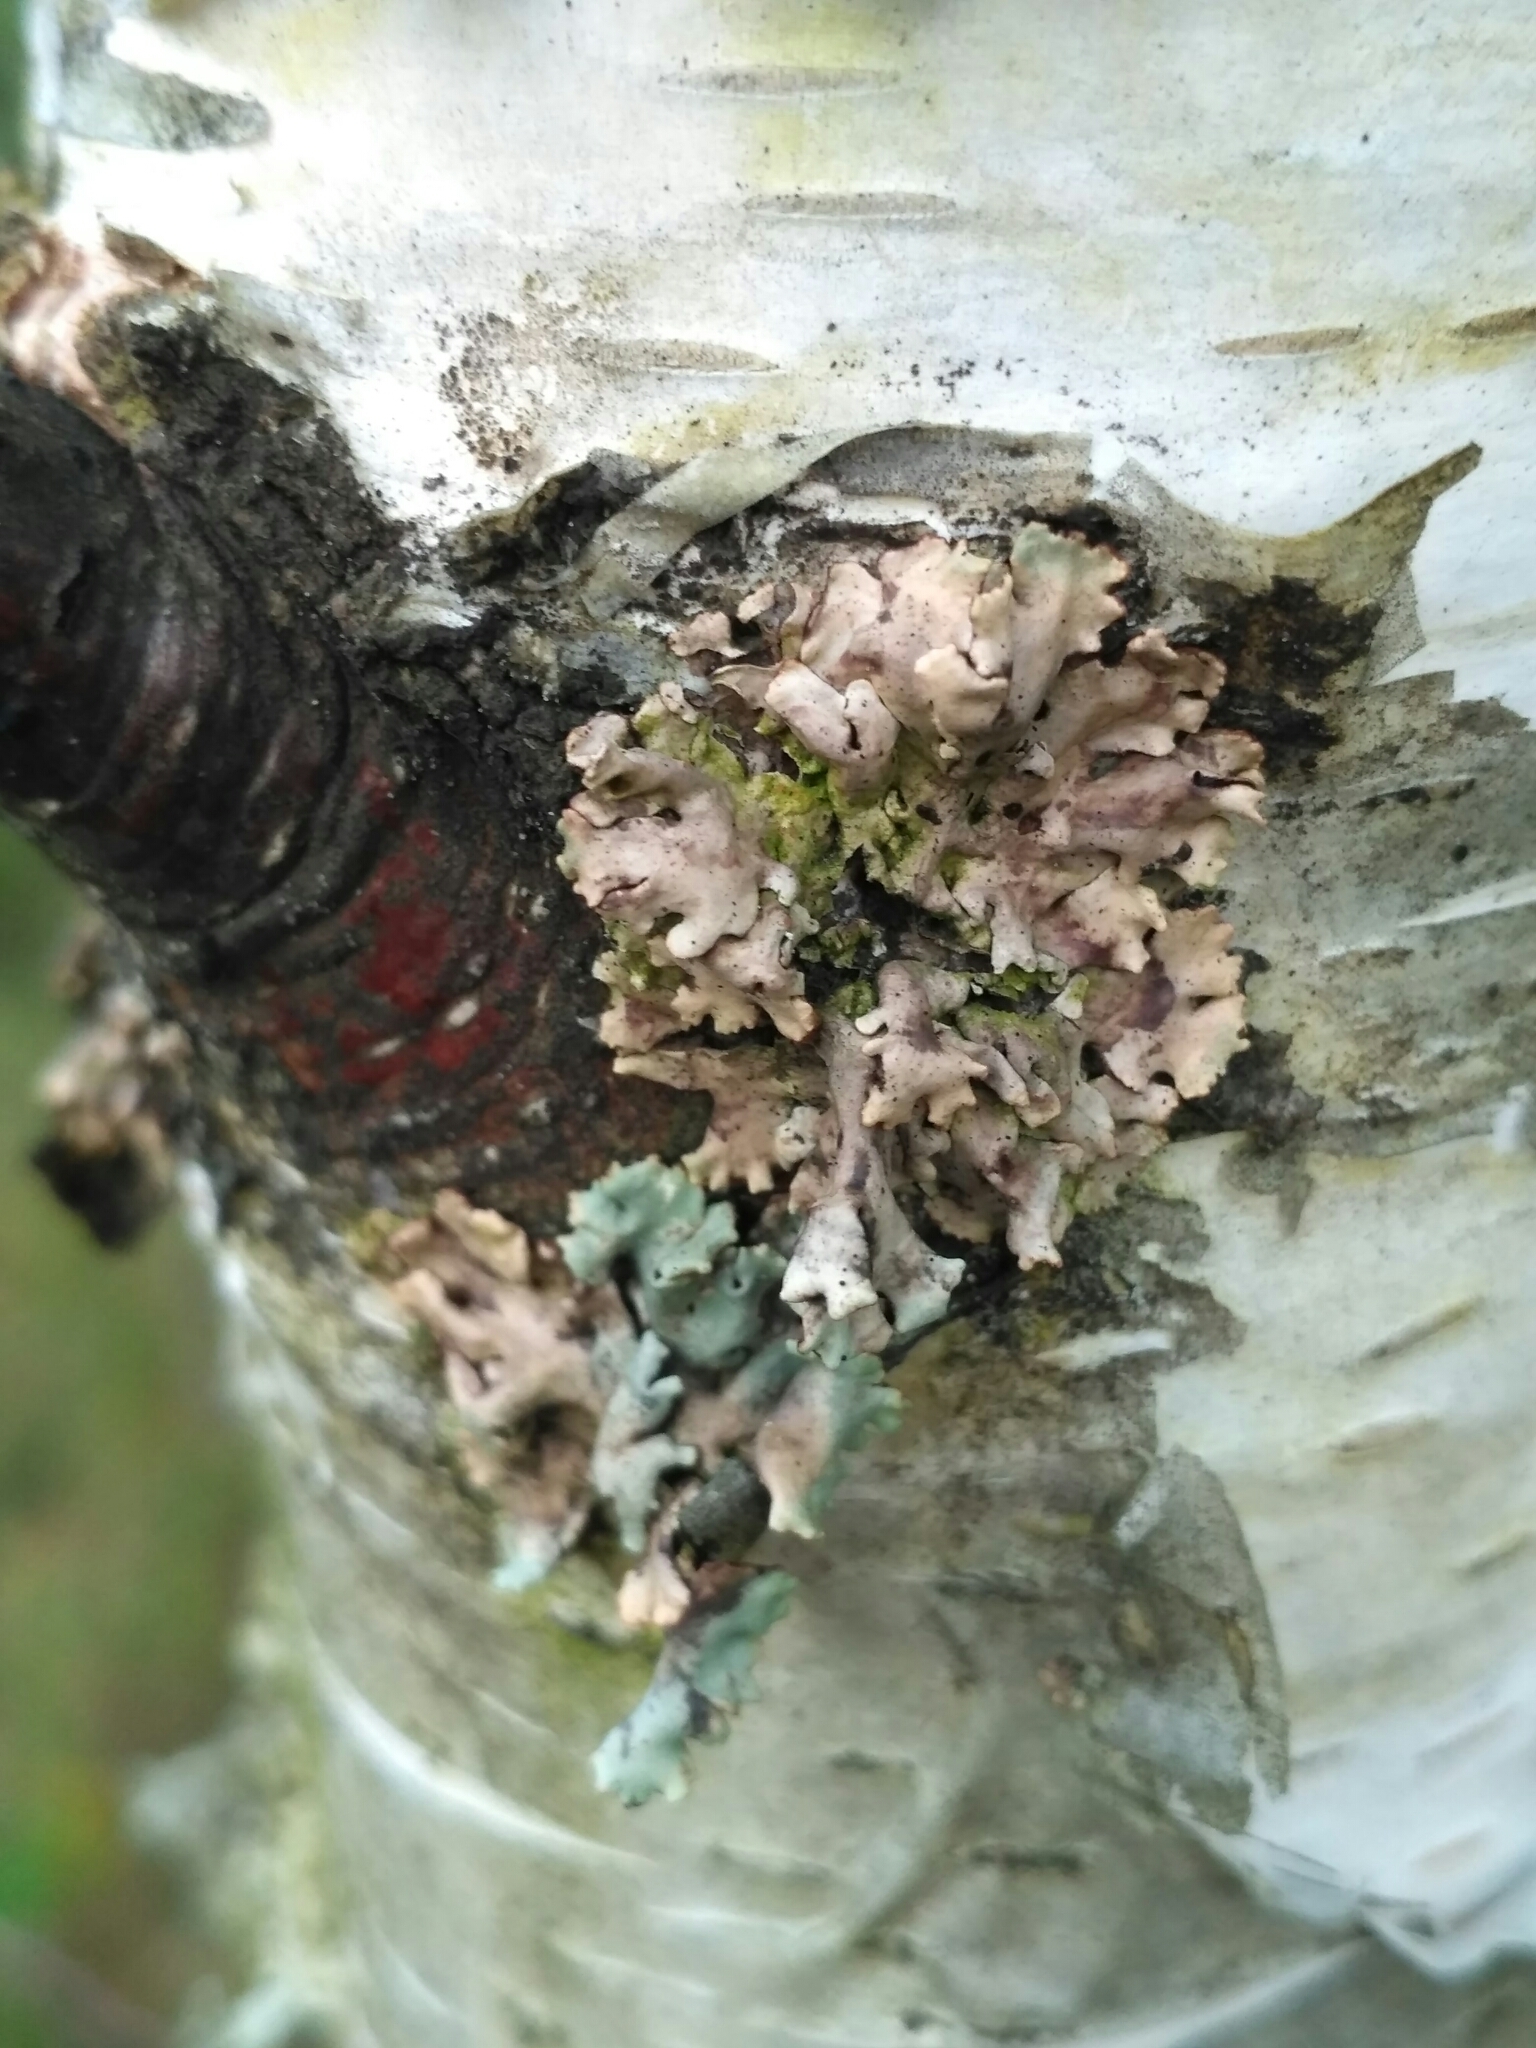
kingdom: Fungi
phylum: Ascomycota
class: Lecanoromycetes
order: Lecanorales
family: Parmeliaceae
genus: Hypogymnia
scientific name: Hypogymnia physodes
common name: Dark crottle
